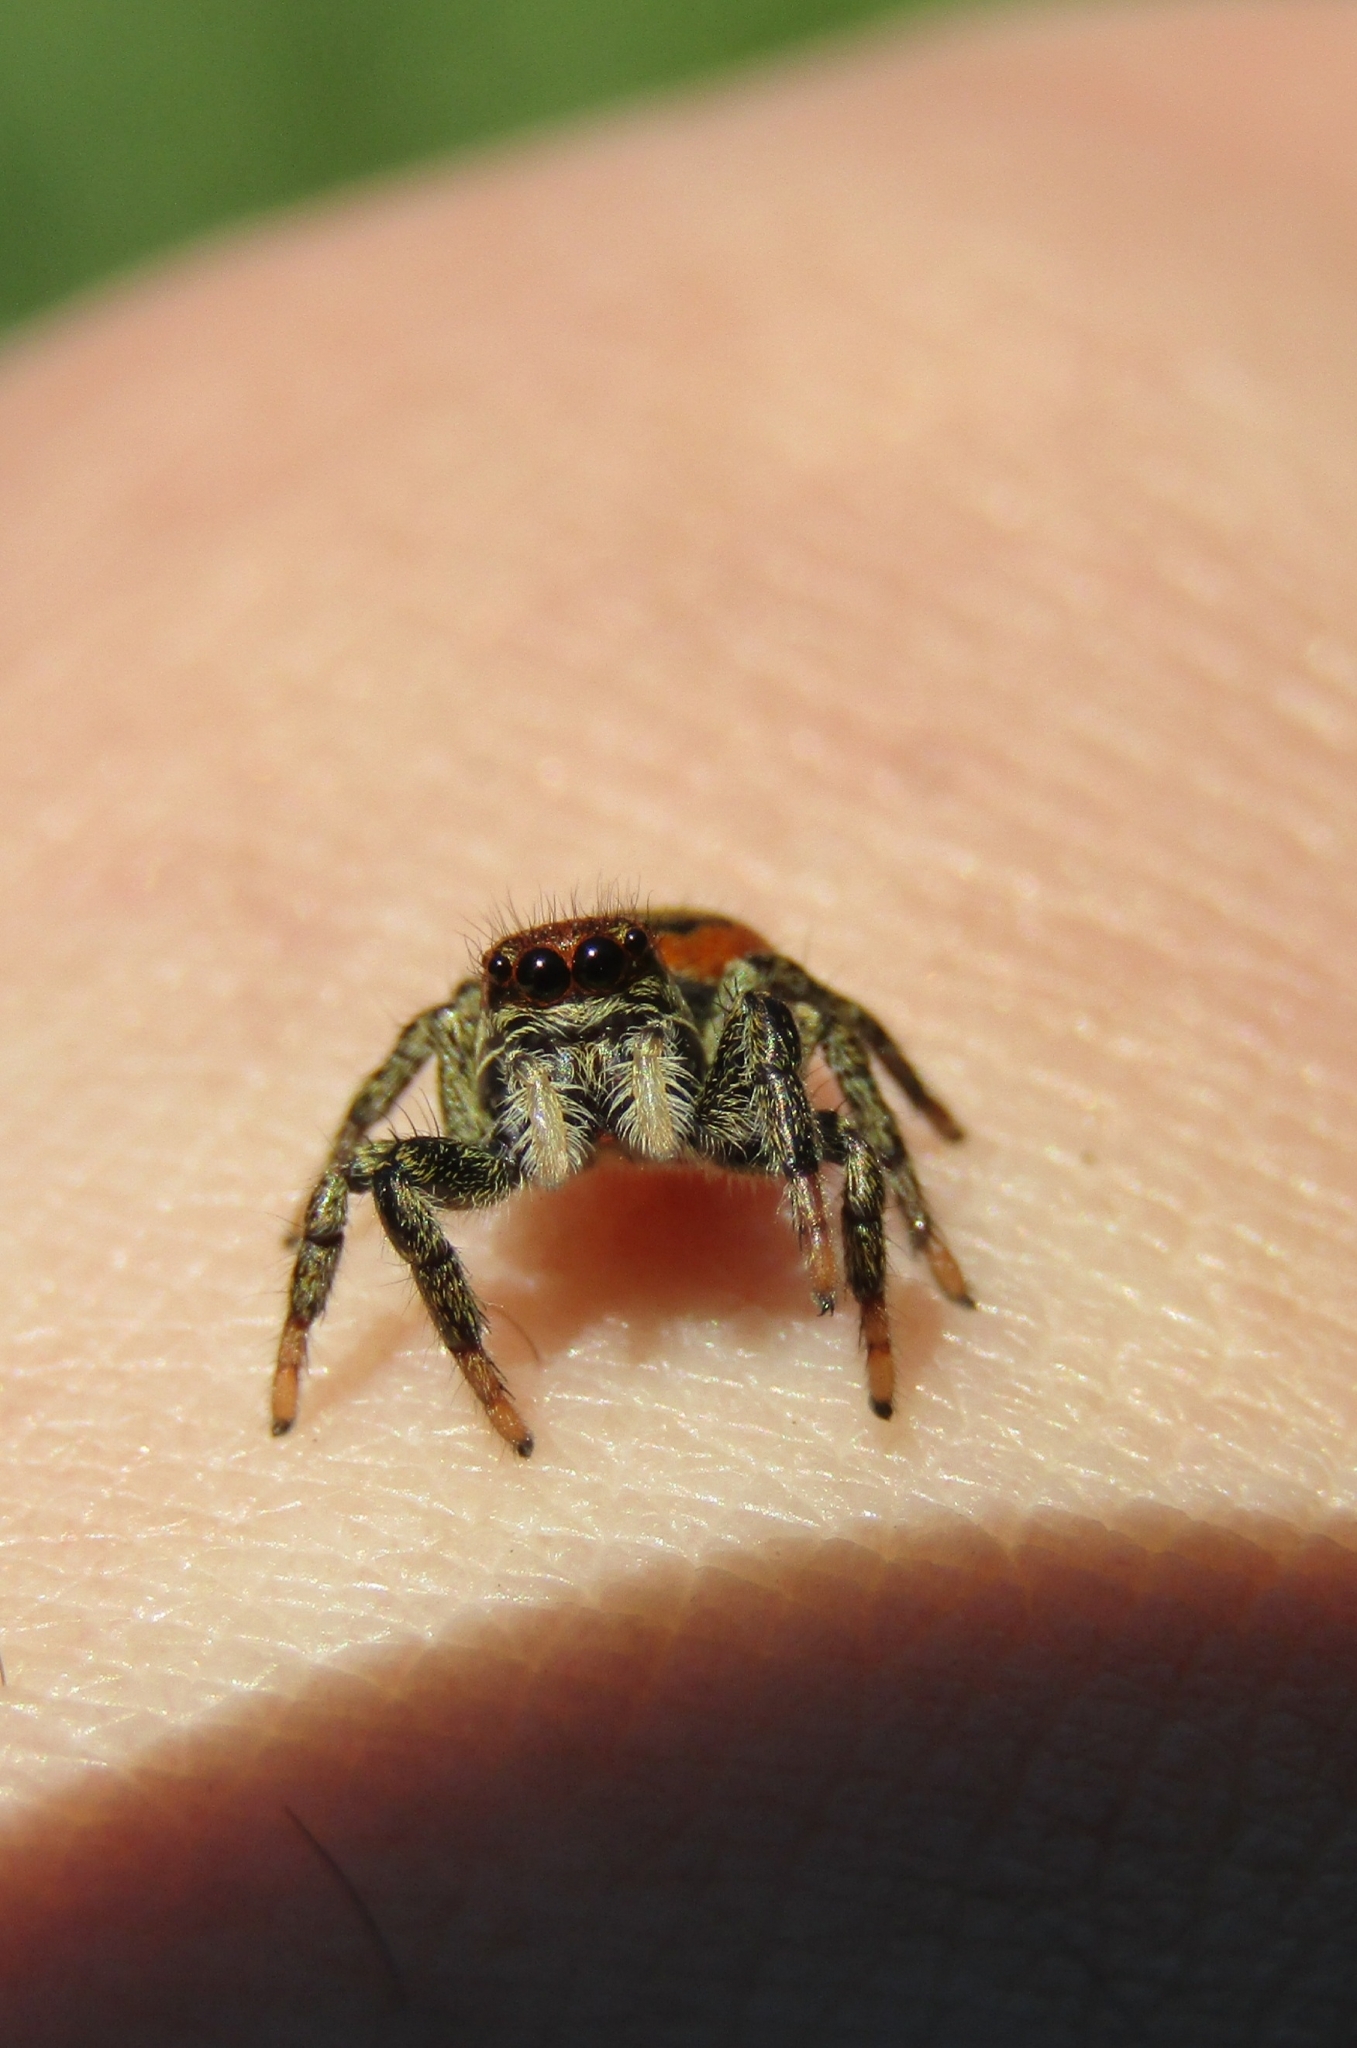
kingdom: Animalia
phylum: Arthropoda
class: Arachnida
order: Araneae
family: Salticidae
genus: Phiale
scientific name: Phiale roburifoliata
